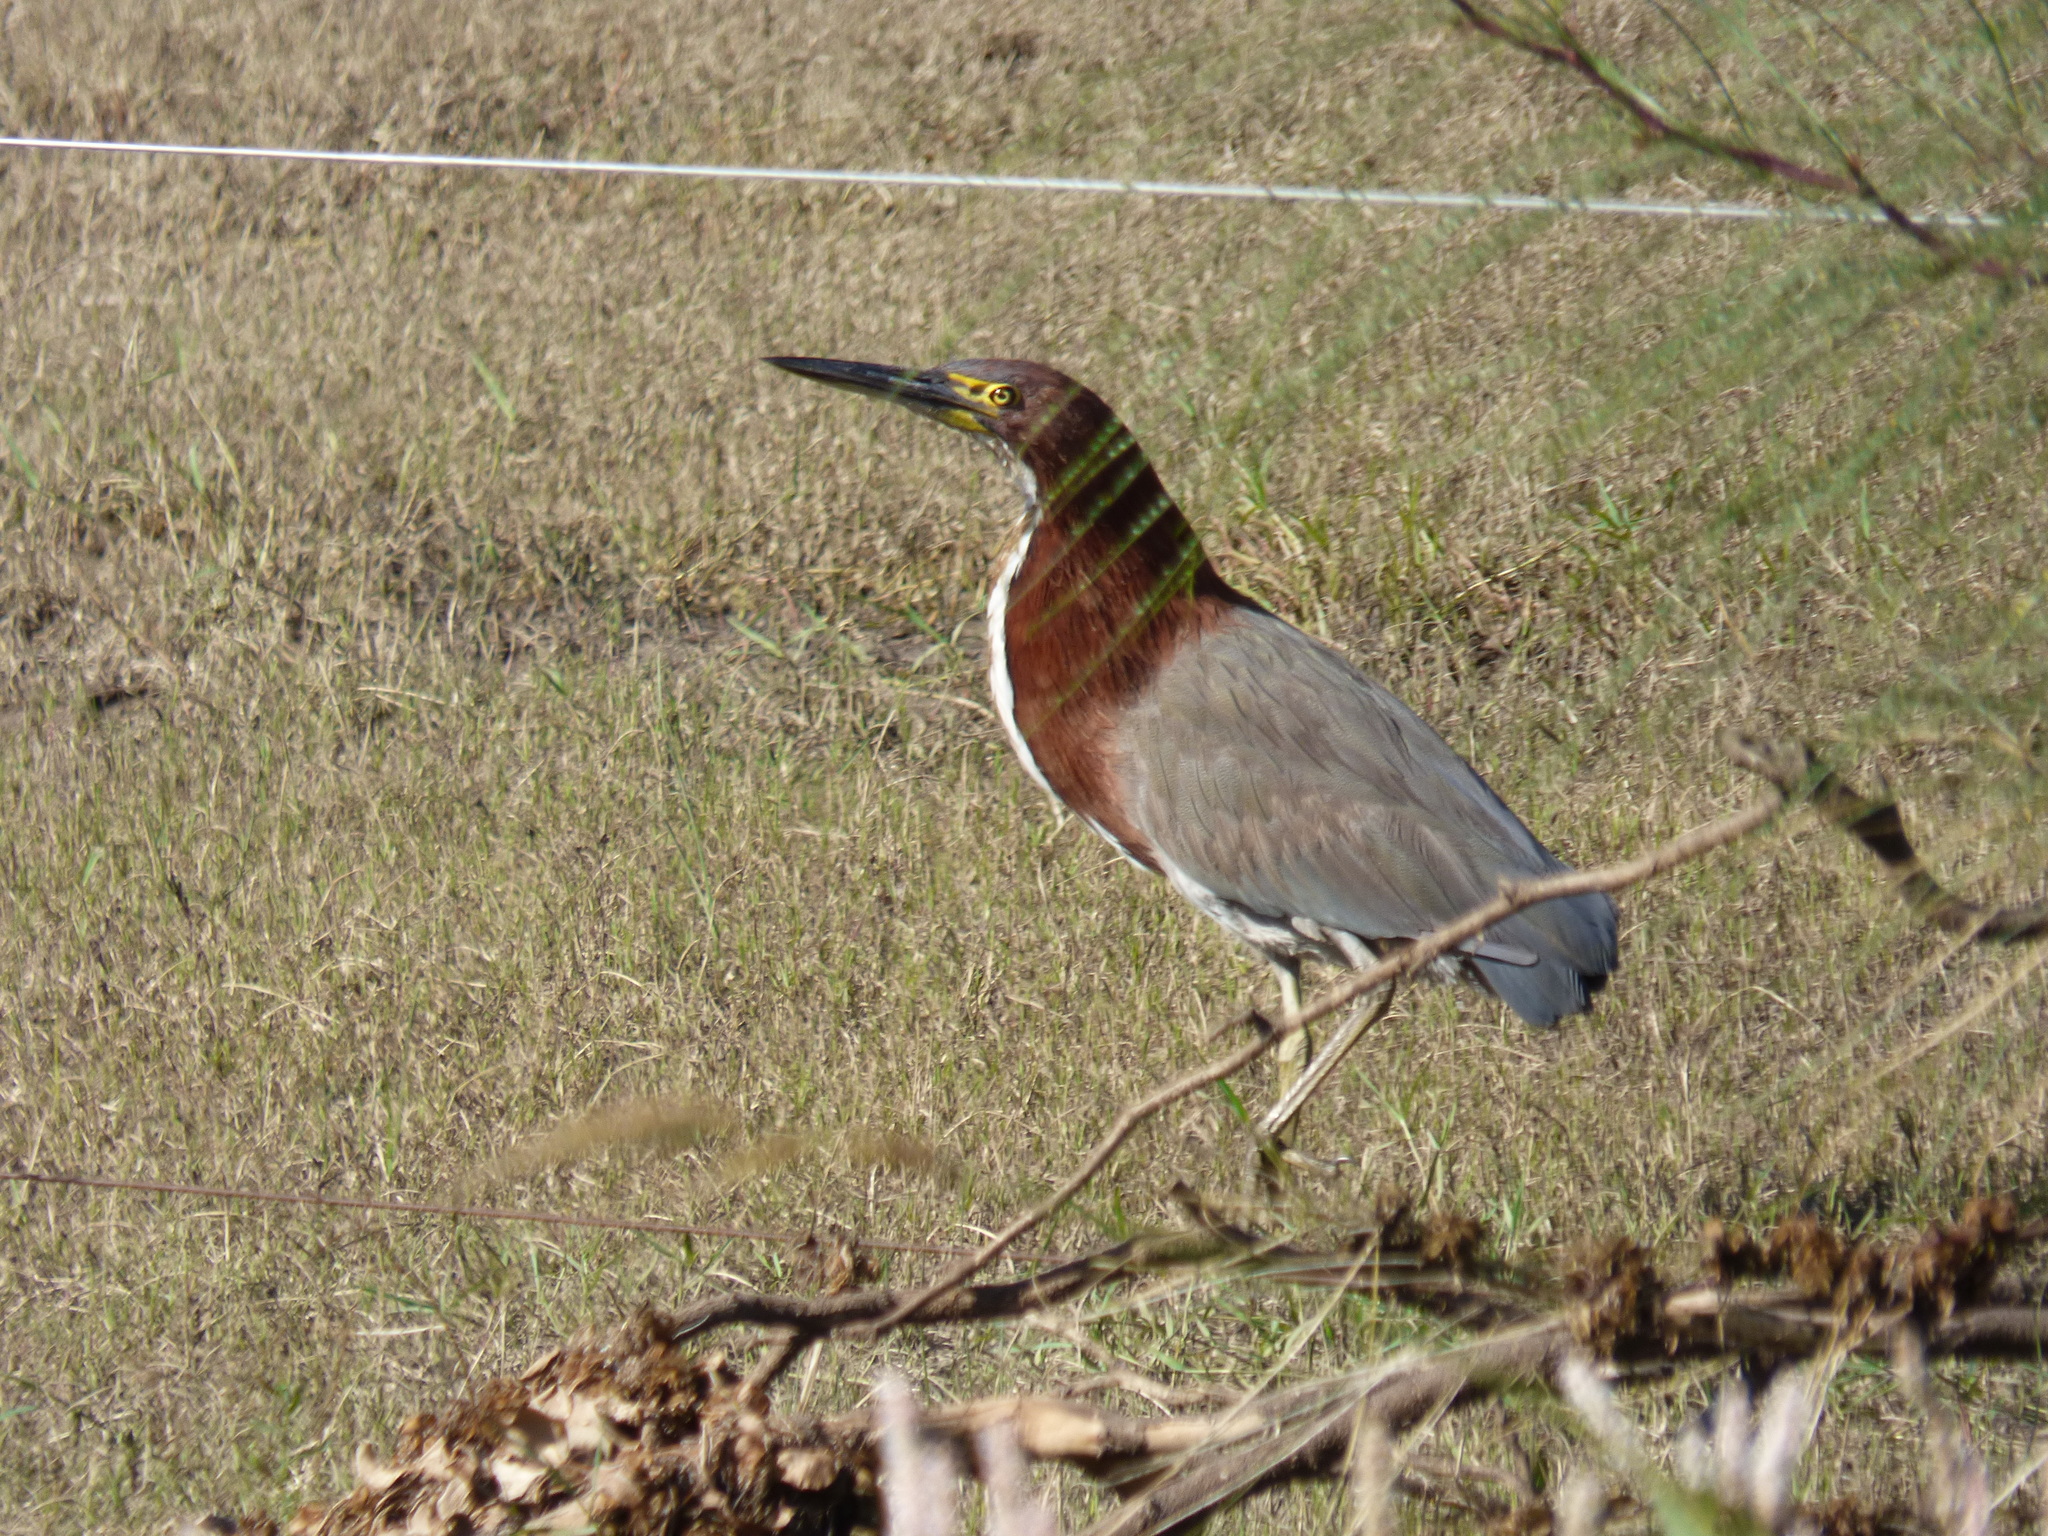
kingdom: Animalia
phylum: Chordata
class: Aves
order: Pelecaniformes
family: Ardeidae
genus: Tigrisoma
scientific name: Tigrisoma lineatum
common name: Rufescent tiger-heron
